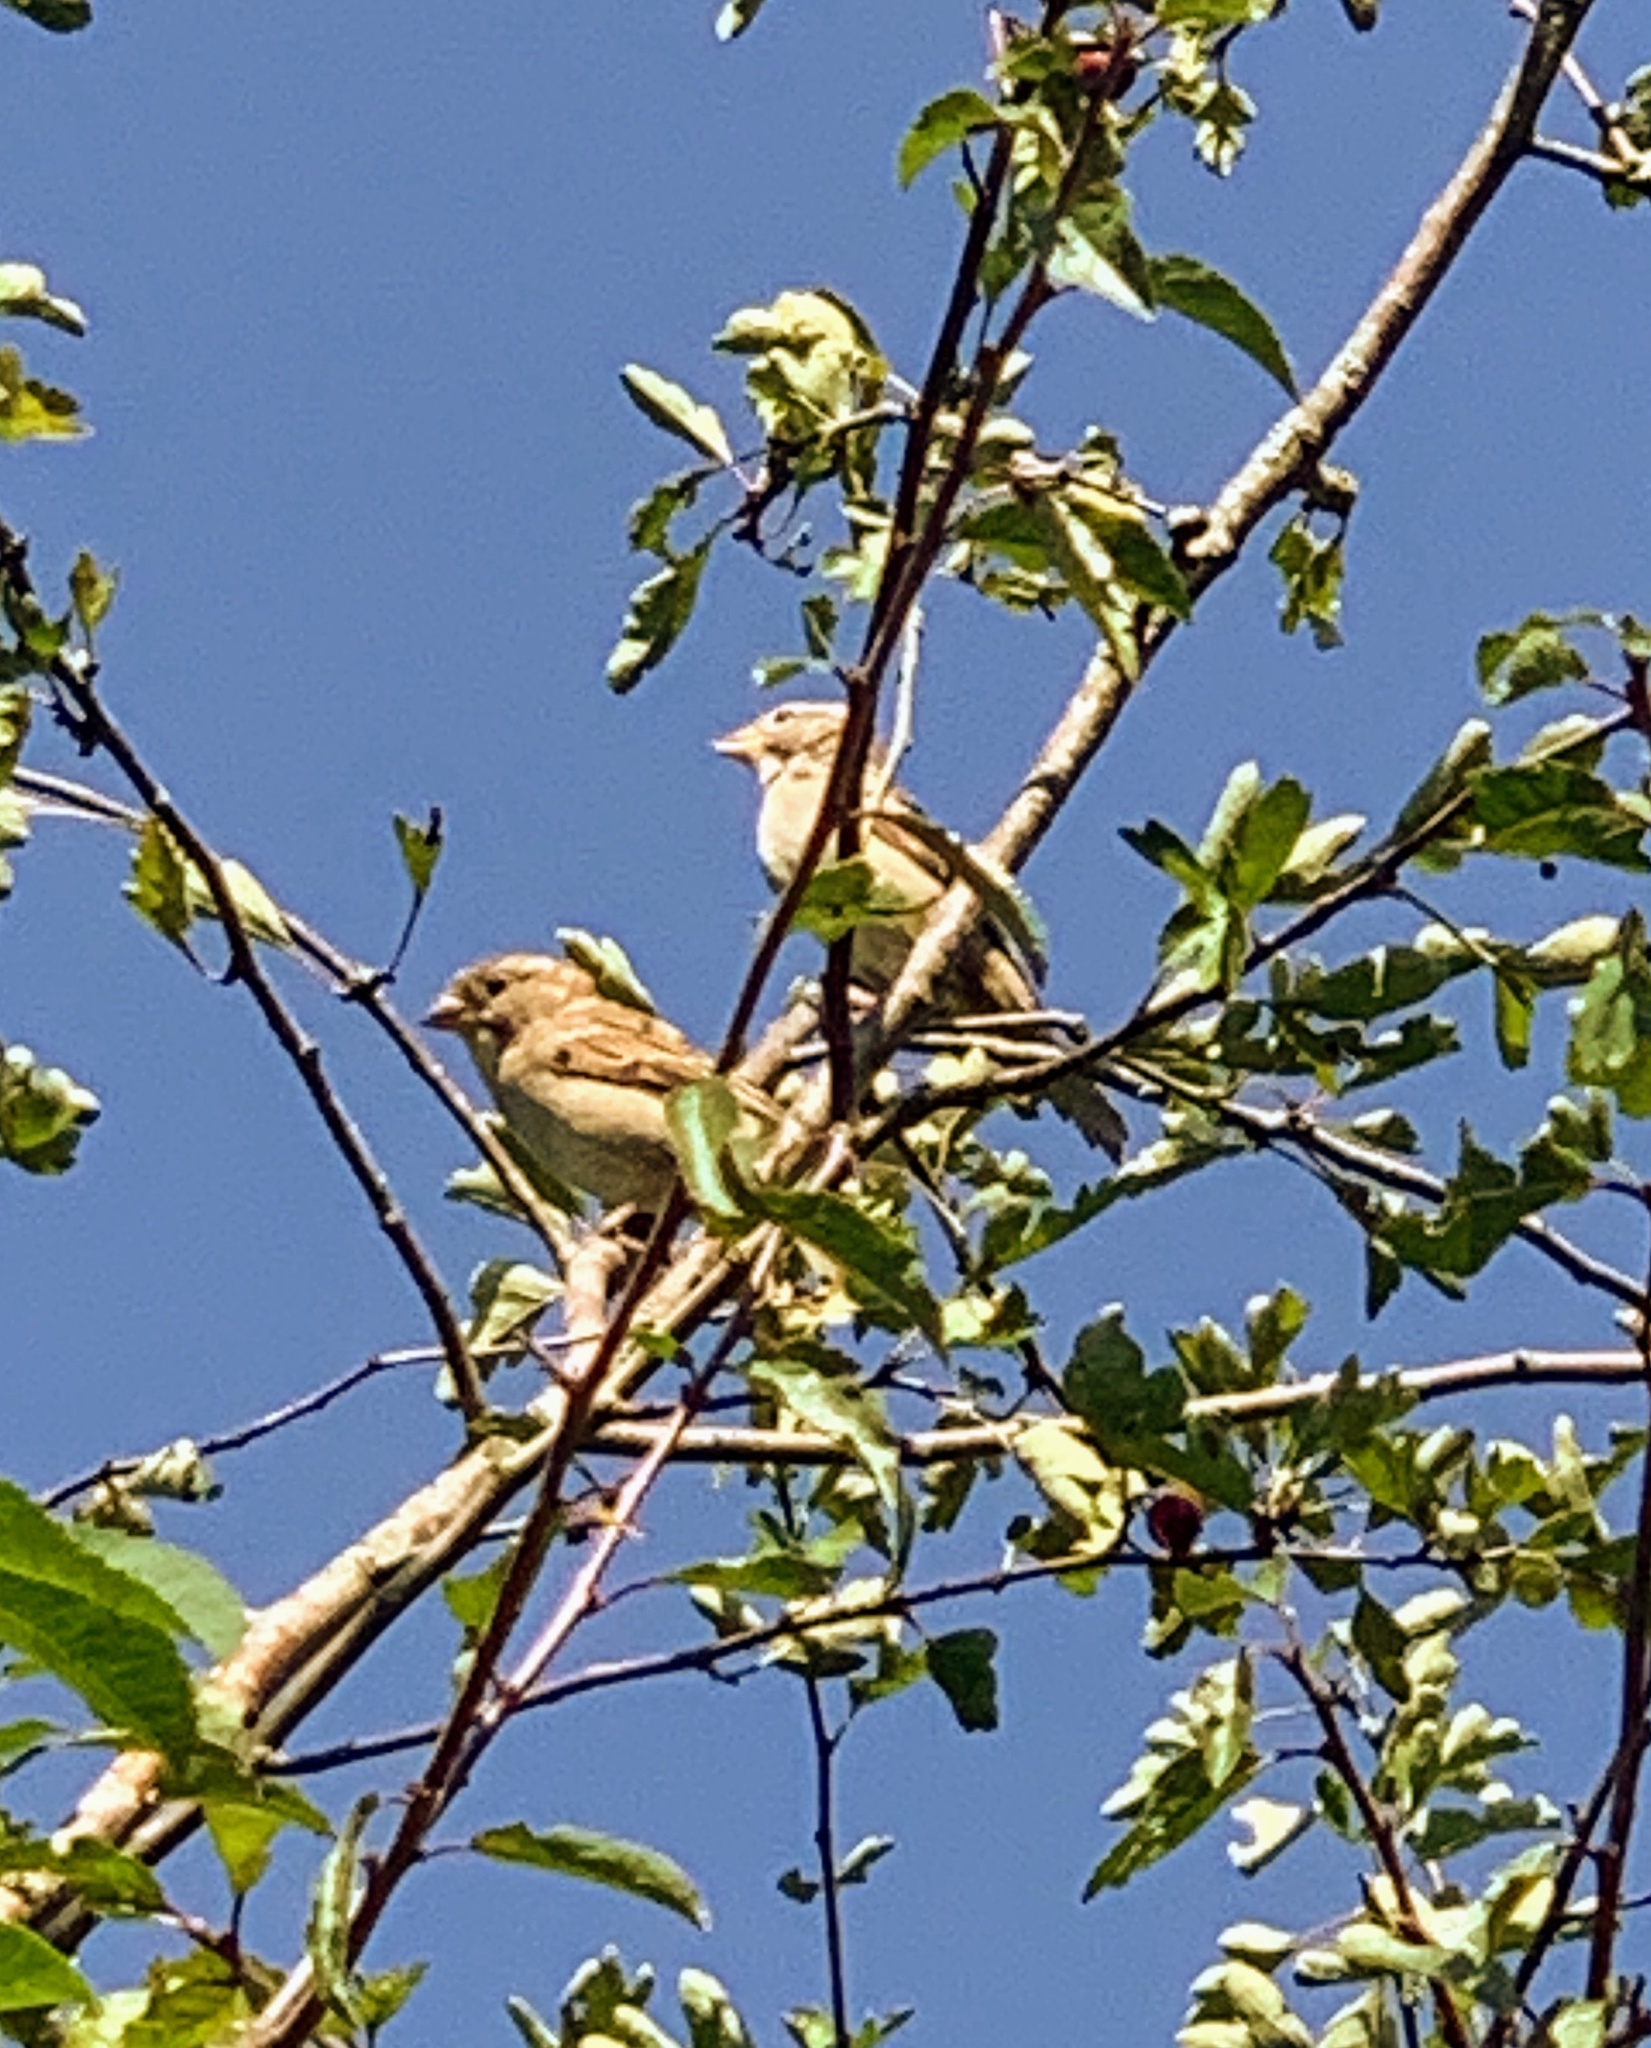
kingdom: Animalia
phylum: Chordata
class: Aves
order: Passeriformes
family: Passeridae
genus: Passer
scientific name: Passer domesticus
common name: House sparrow
